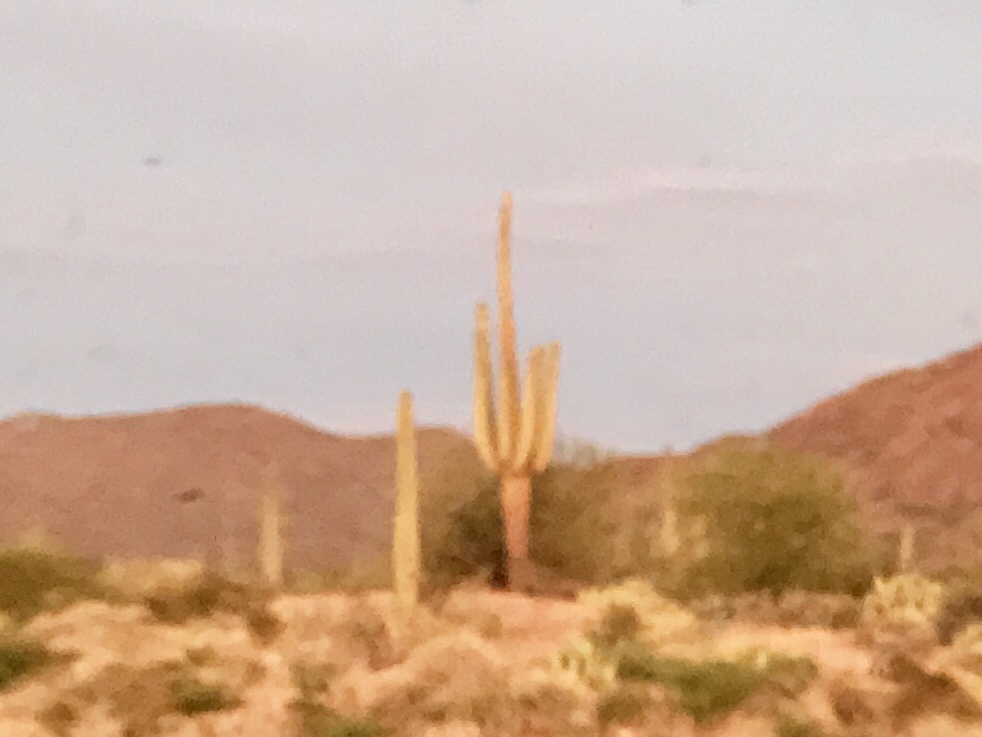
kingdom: Plantae
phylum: Tracheophyta
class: Magnoliopsida
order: Caryophyllales
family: Cactaceae
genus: Carnegiea
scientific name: Carnegiea gigantea
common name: Saguaro
